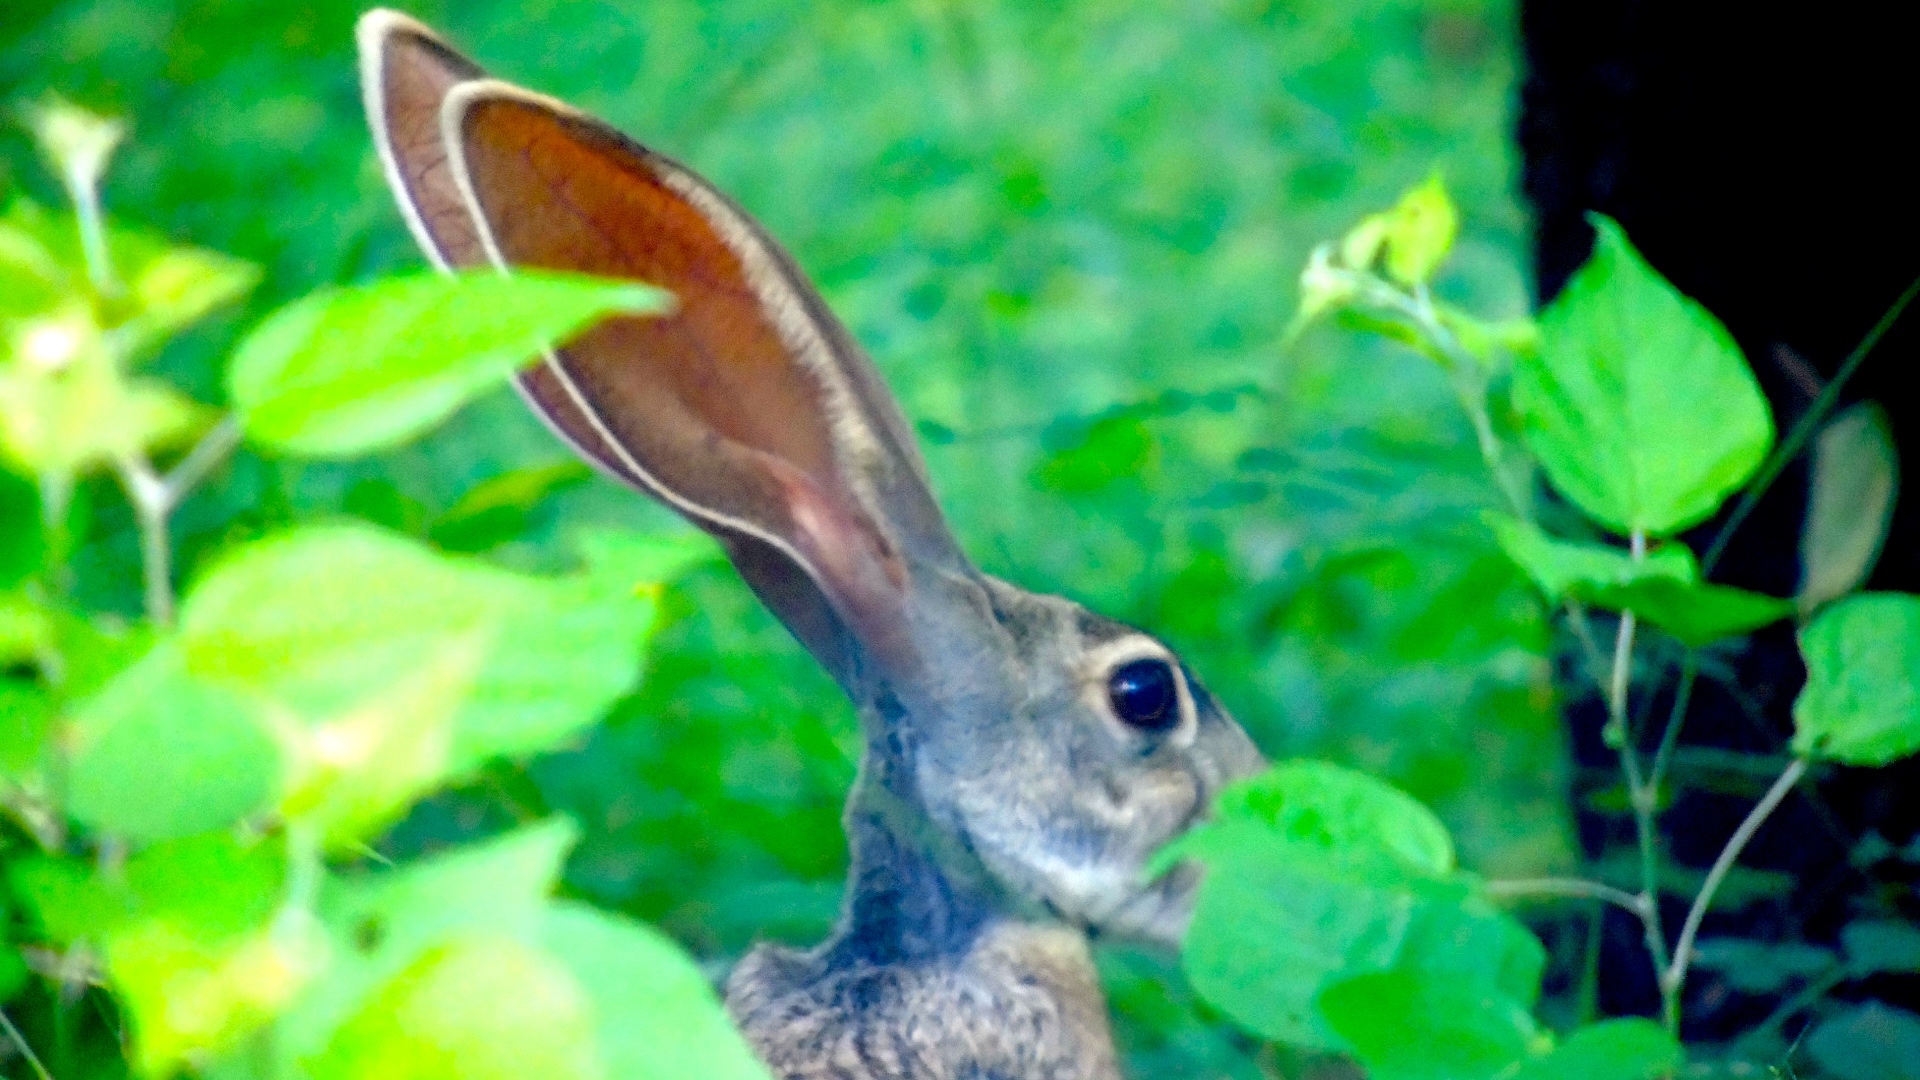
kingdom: Animalia
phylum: Chordata
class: Mammalia
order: Lagomorpha
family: Leporidae
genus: Lepus
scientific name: Lepus alleni
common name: Antelope jackrabbit
